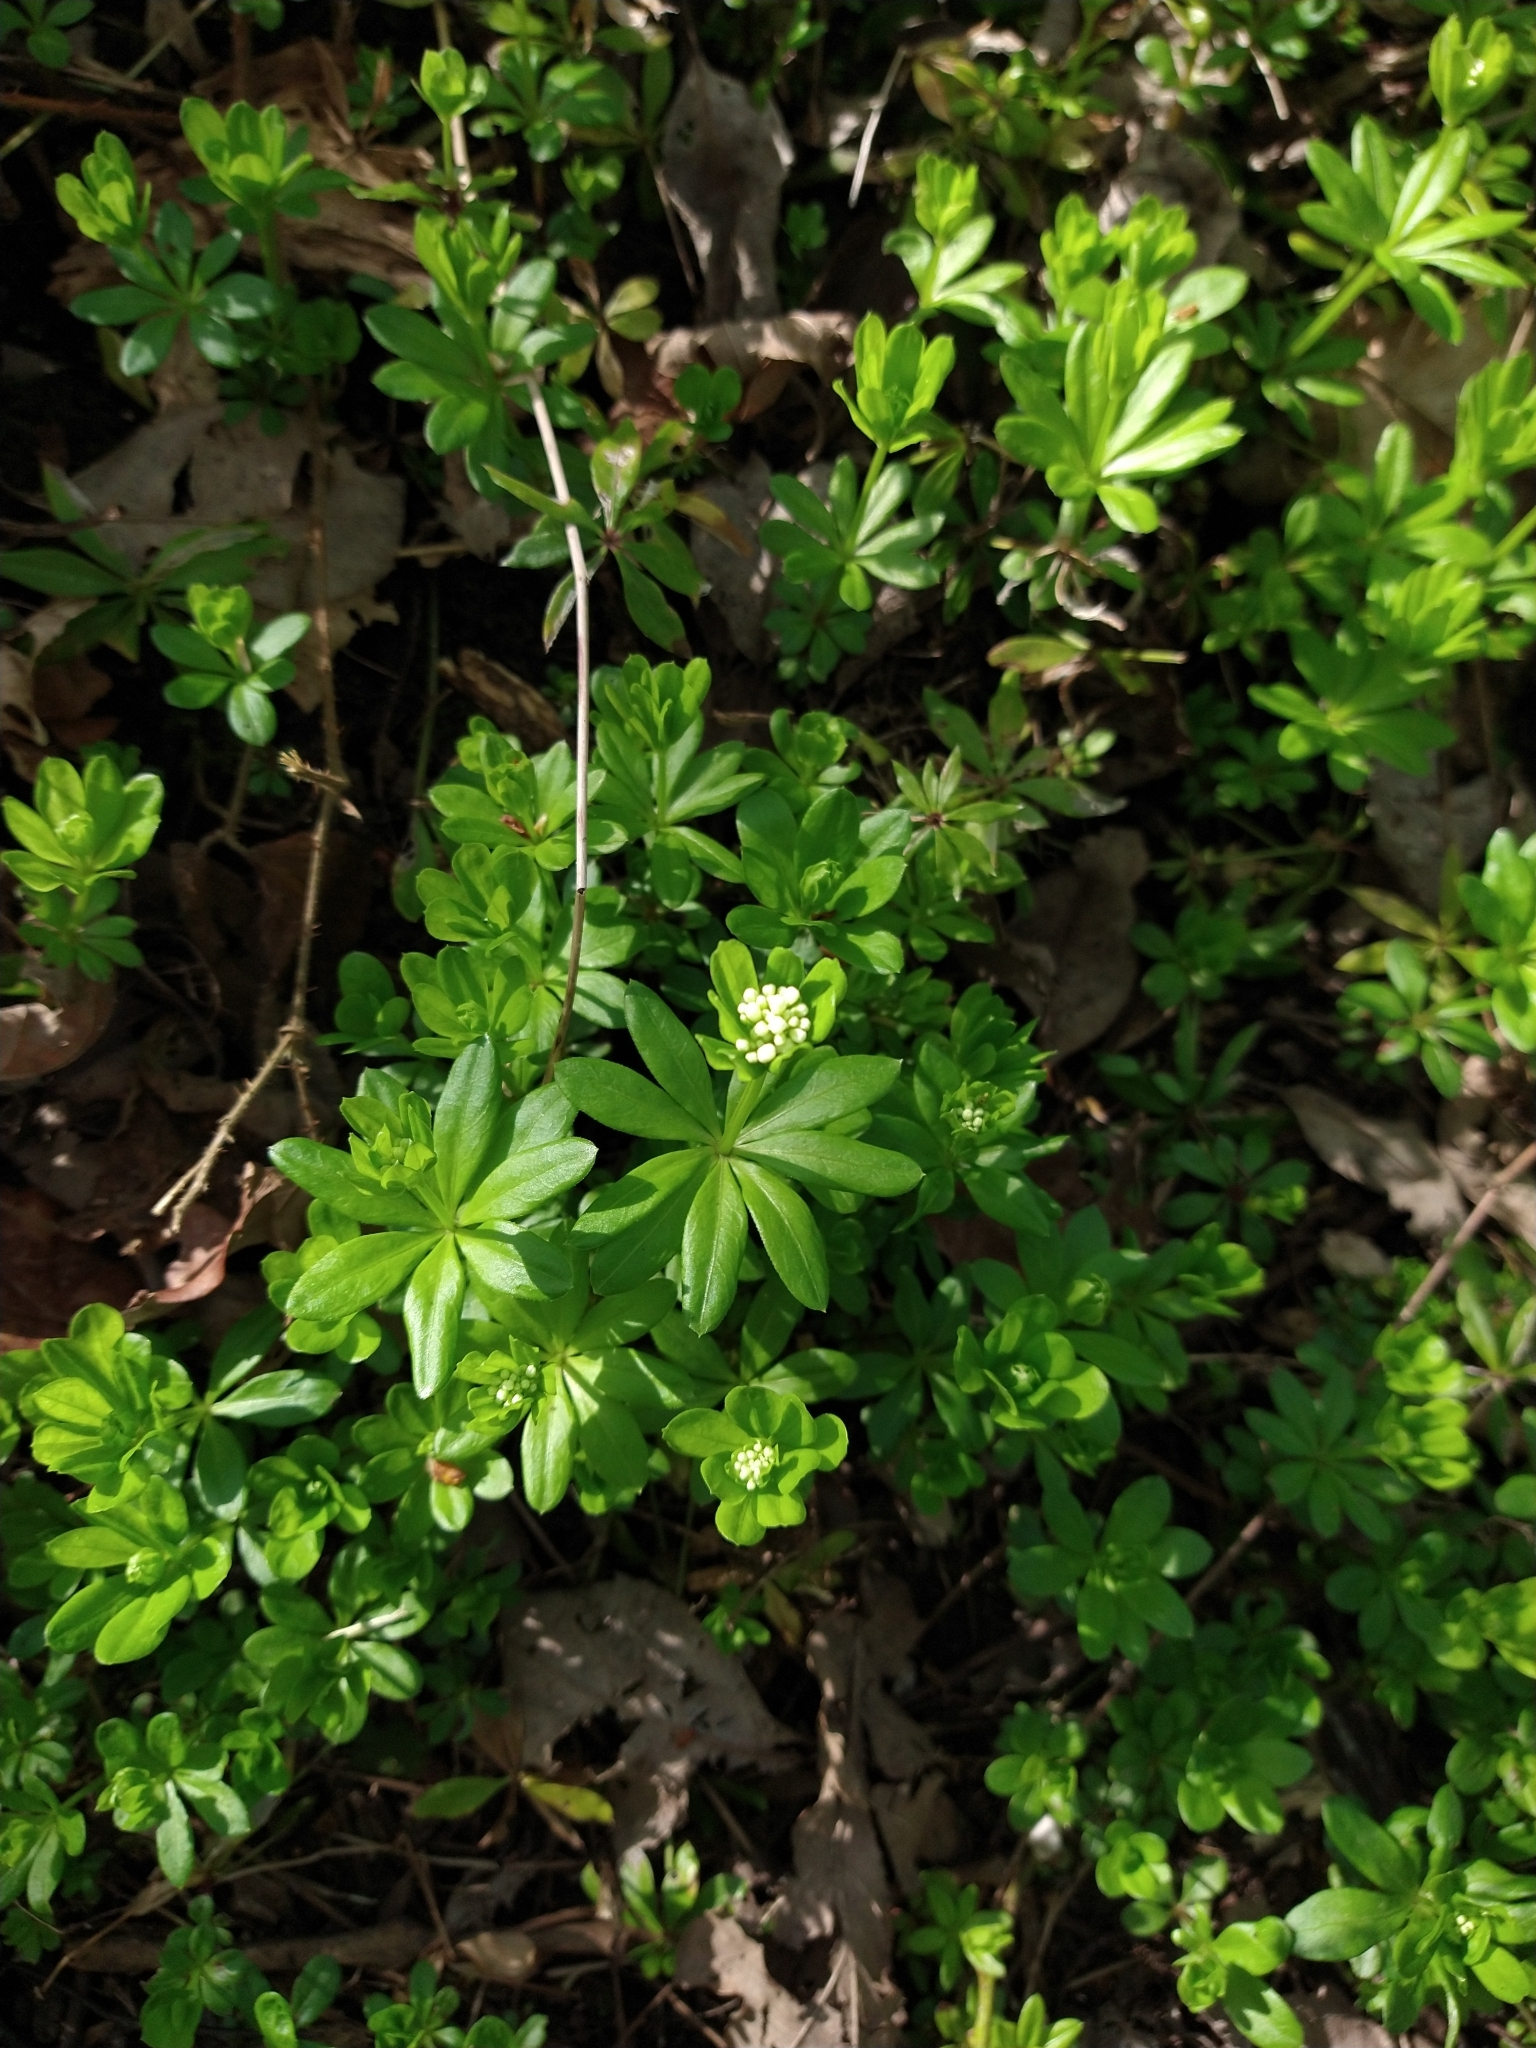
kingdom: Plantae
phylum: Tracheophyta
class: Magnoliopsida
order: Gentianales
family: Rubiaceae
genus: Galium
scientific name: Galium odoratum
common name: Sweet woodruff
